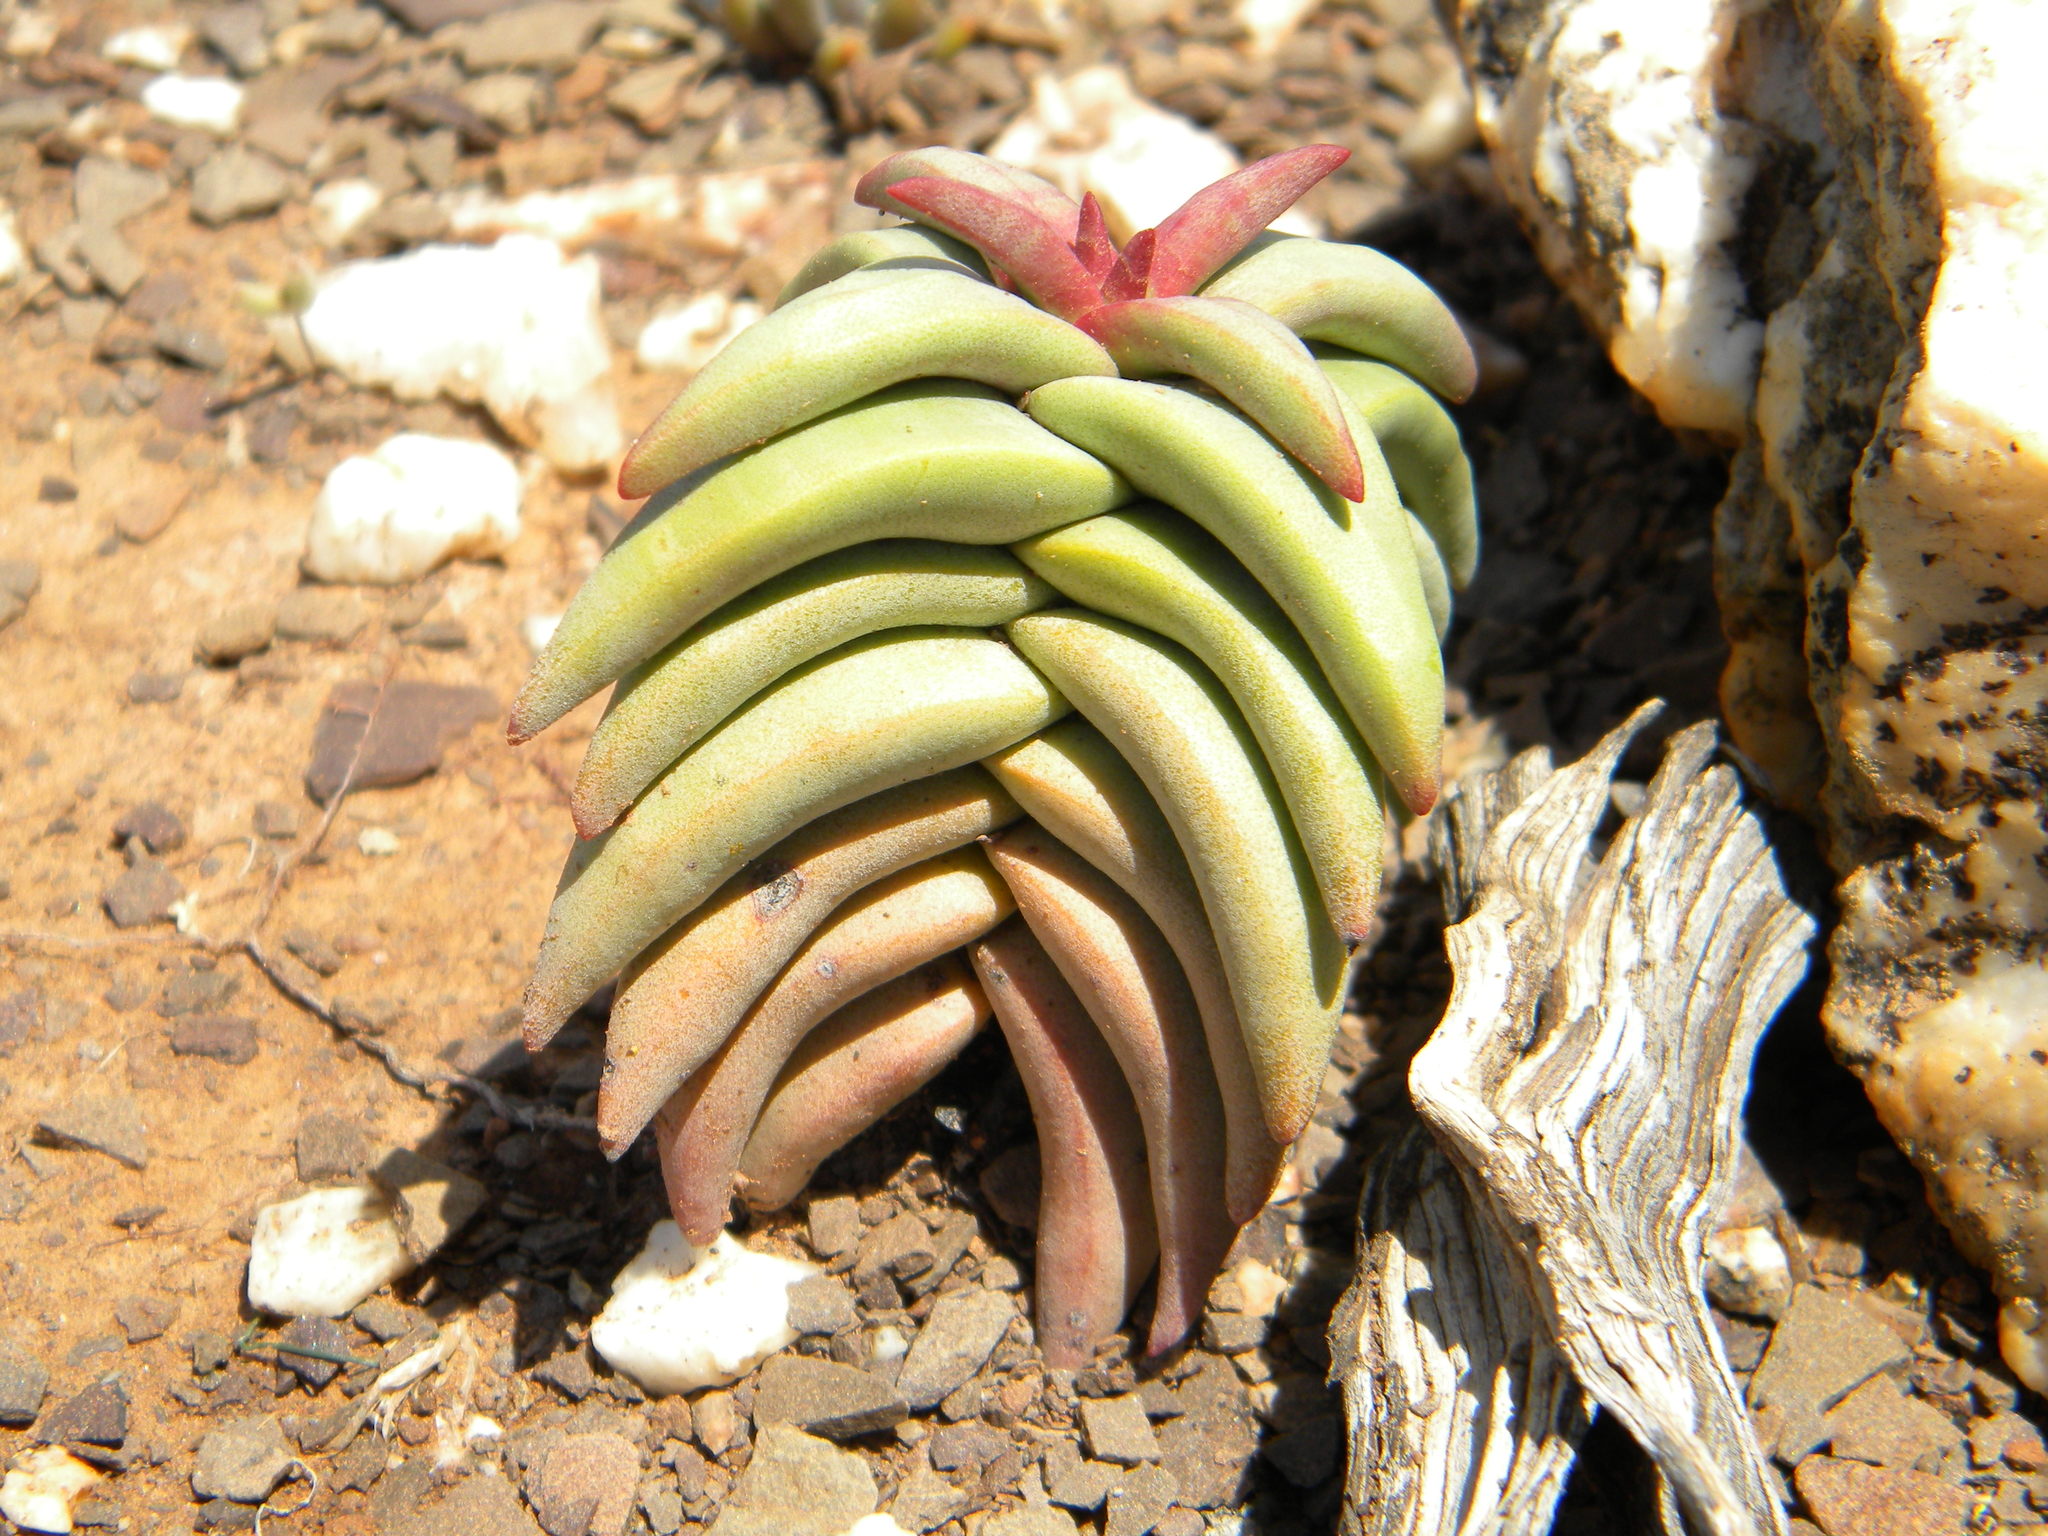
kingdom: Plantae
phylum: Tracheophyta
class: Magnoliopsida
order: Saxifragales
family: Crassulaceae
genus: Crassula
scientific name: Crassula congesta
